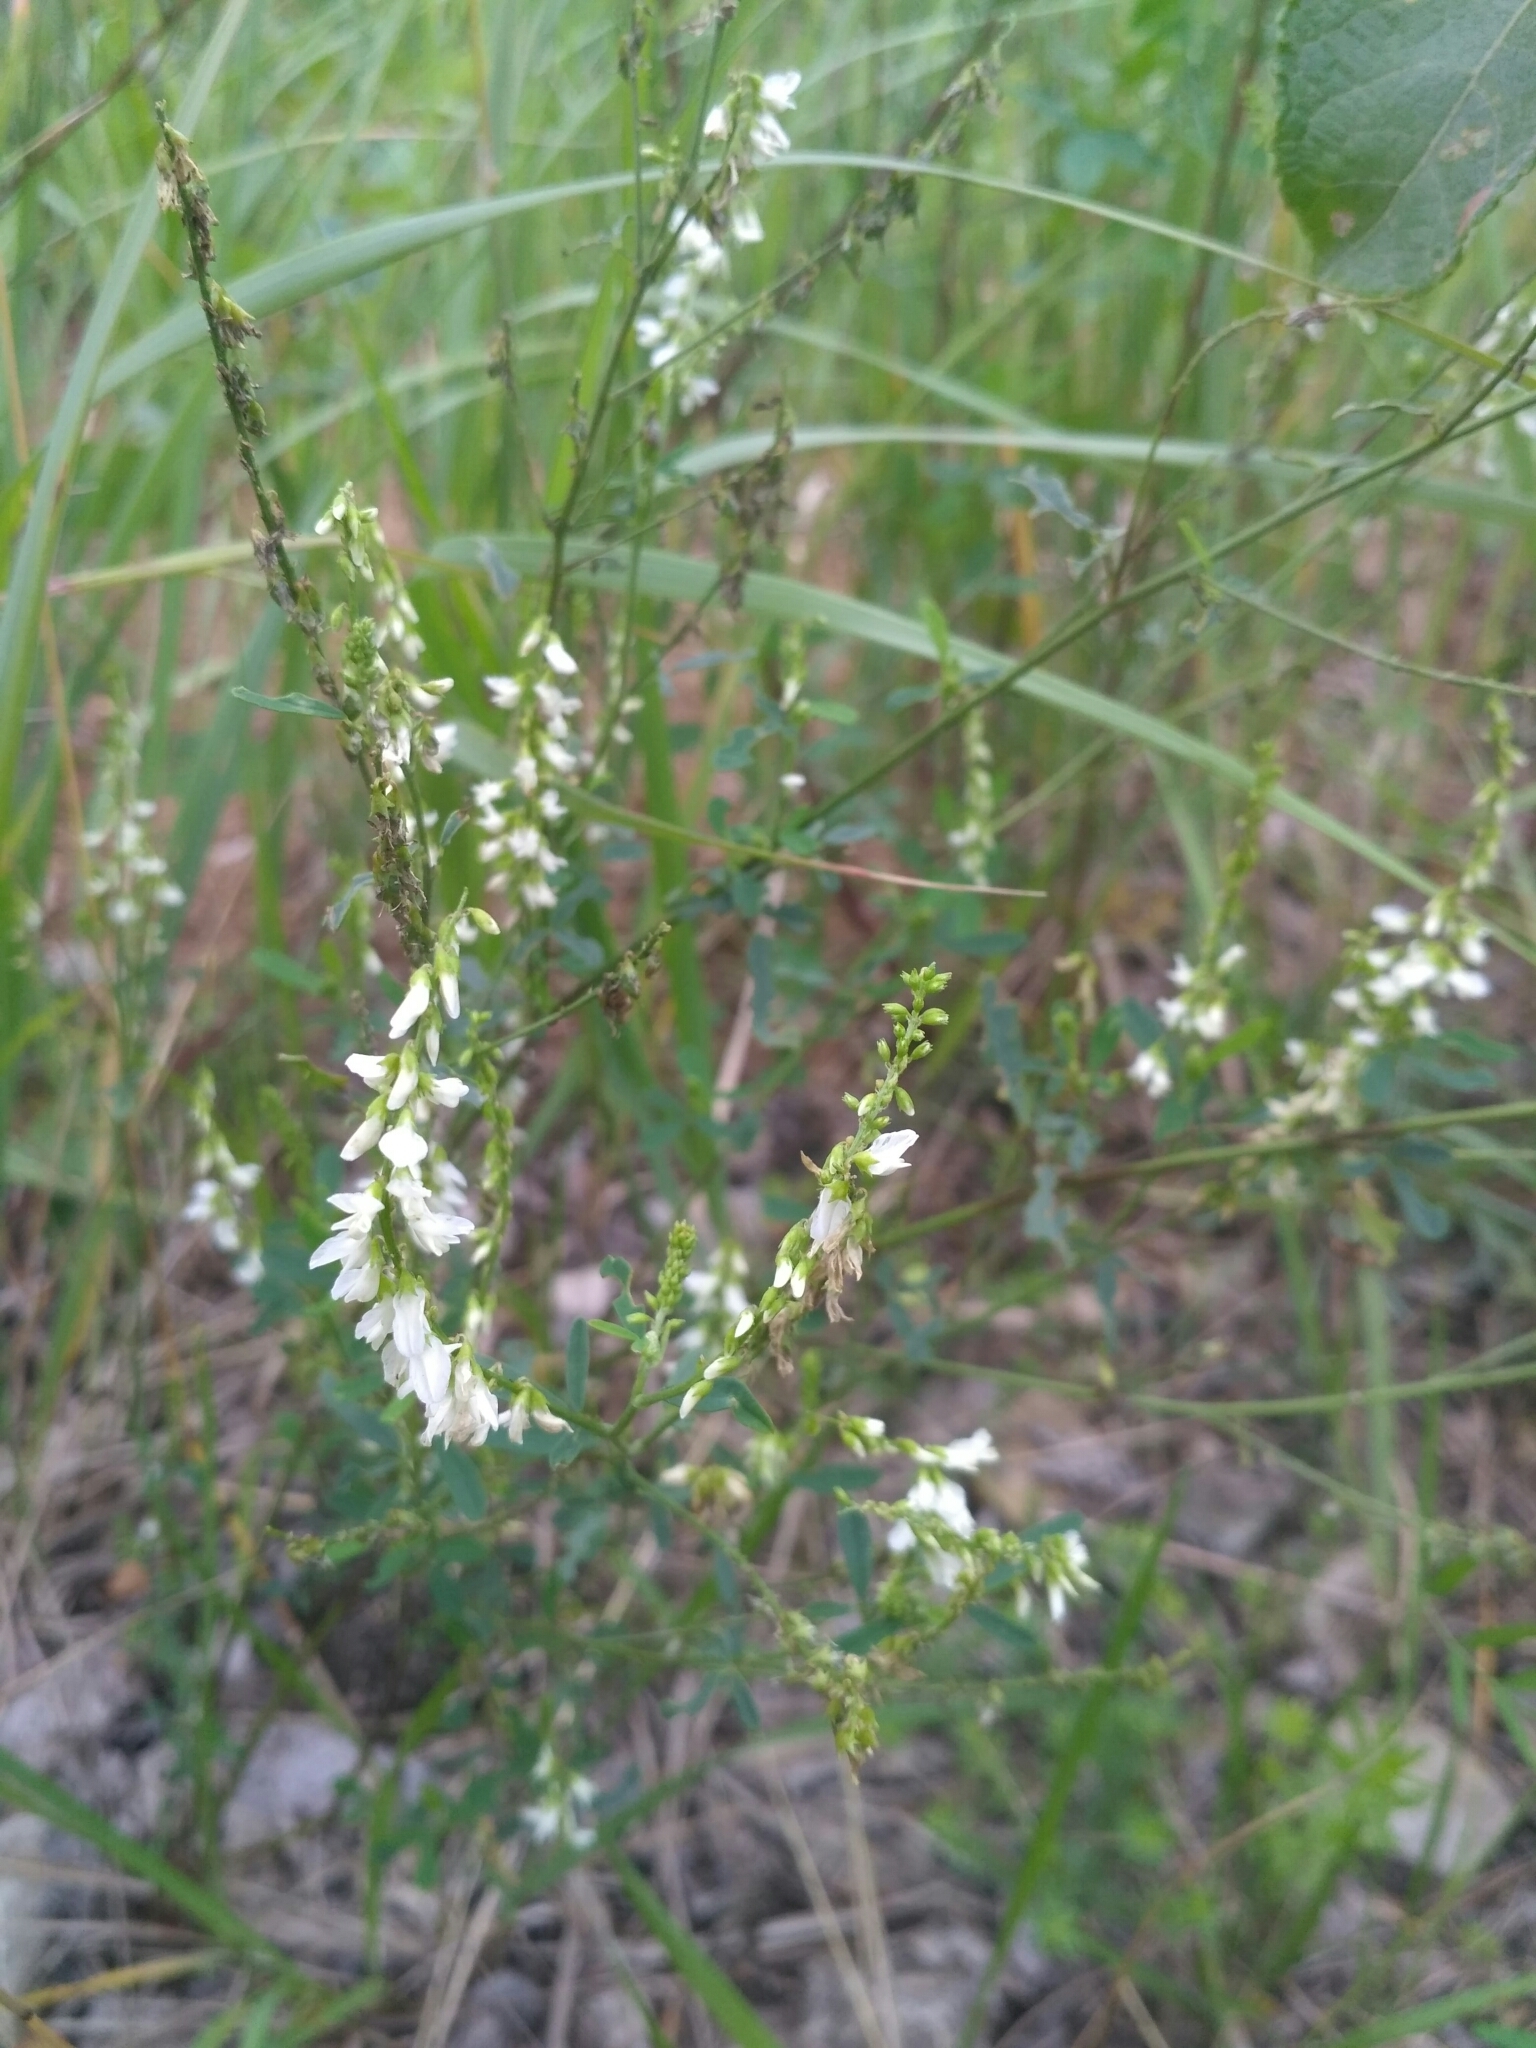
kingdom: Plantae
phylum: Tracheophyta
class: Magnoliopsida
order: Fabales
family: Fabaceae
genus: Melilotus
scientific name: Melilotus albus
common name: White melilot
